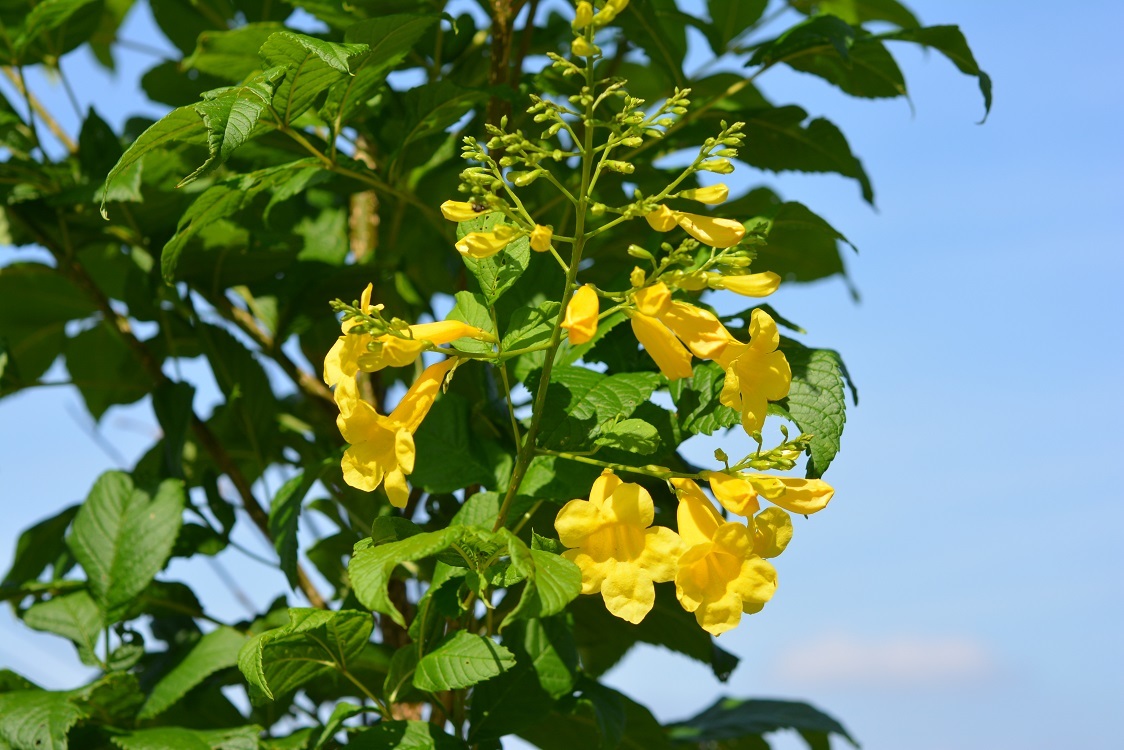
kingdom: Plantae
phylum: Tracheophyta
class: Magnoliopsida
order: Lamiales
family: Bignoniaceae
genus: Tecoma
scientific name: Tecoma stans
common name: Yellow trumpetbush
